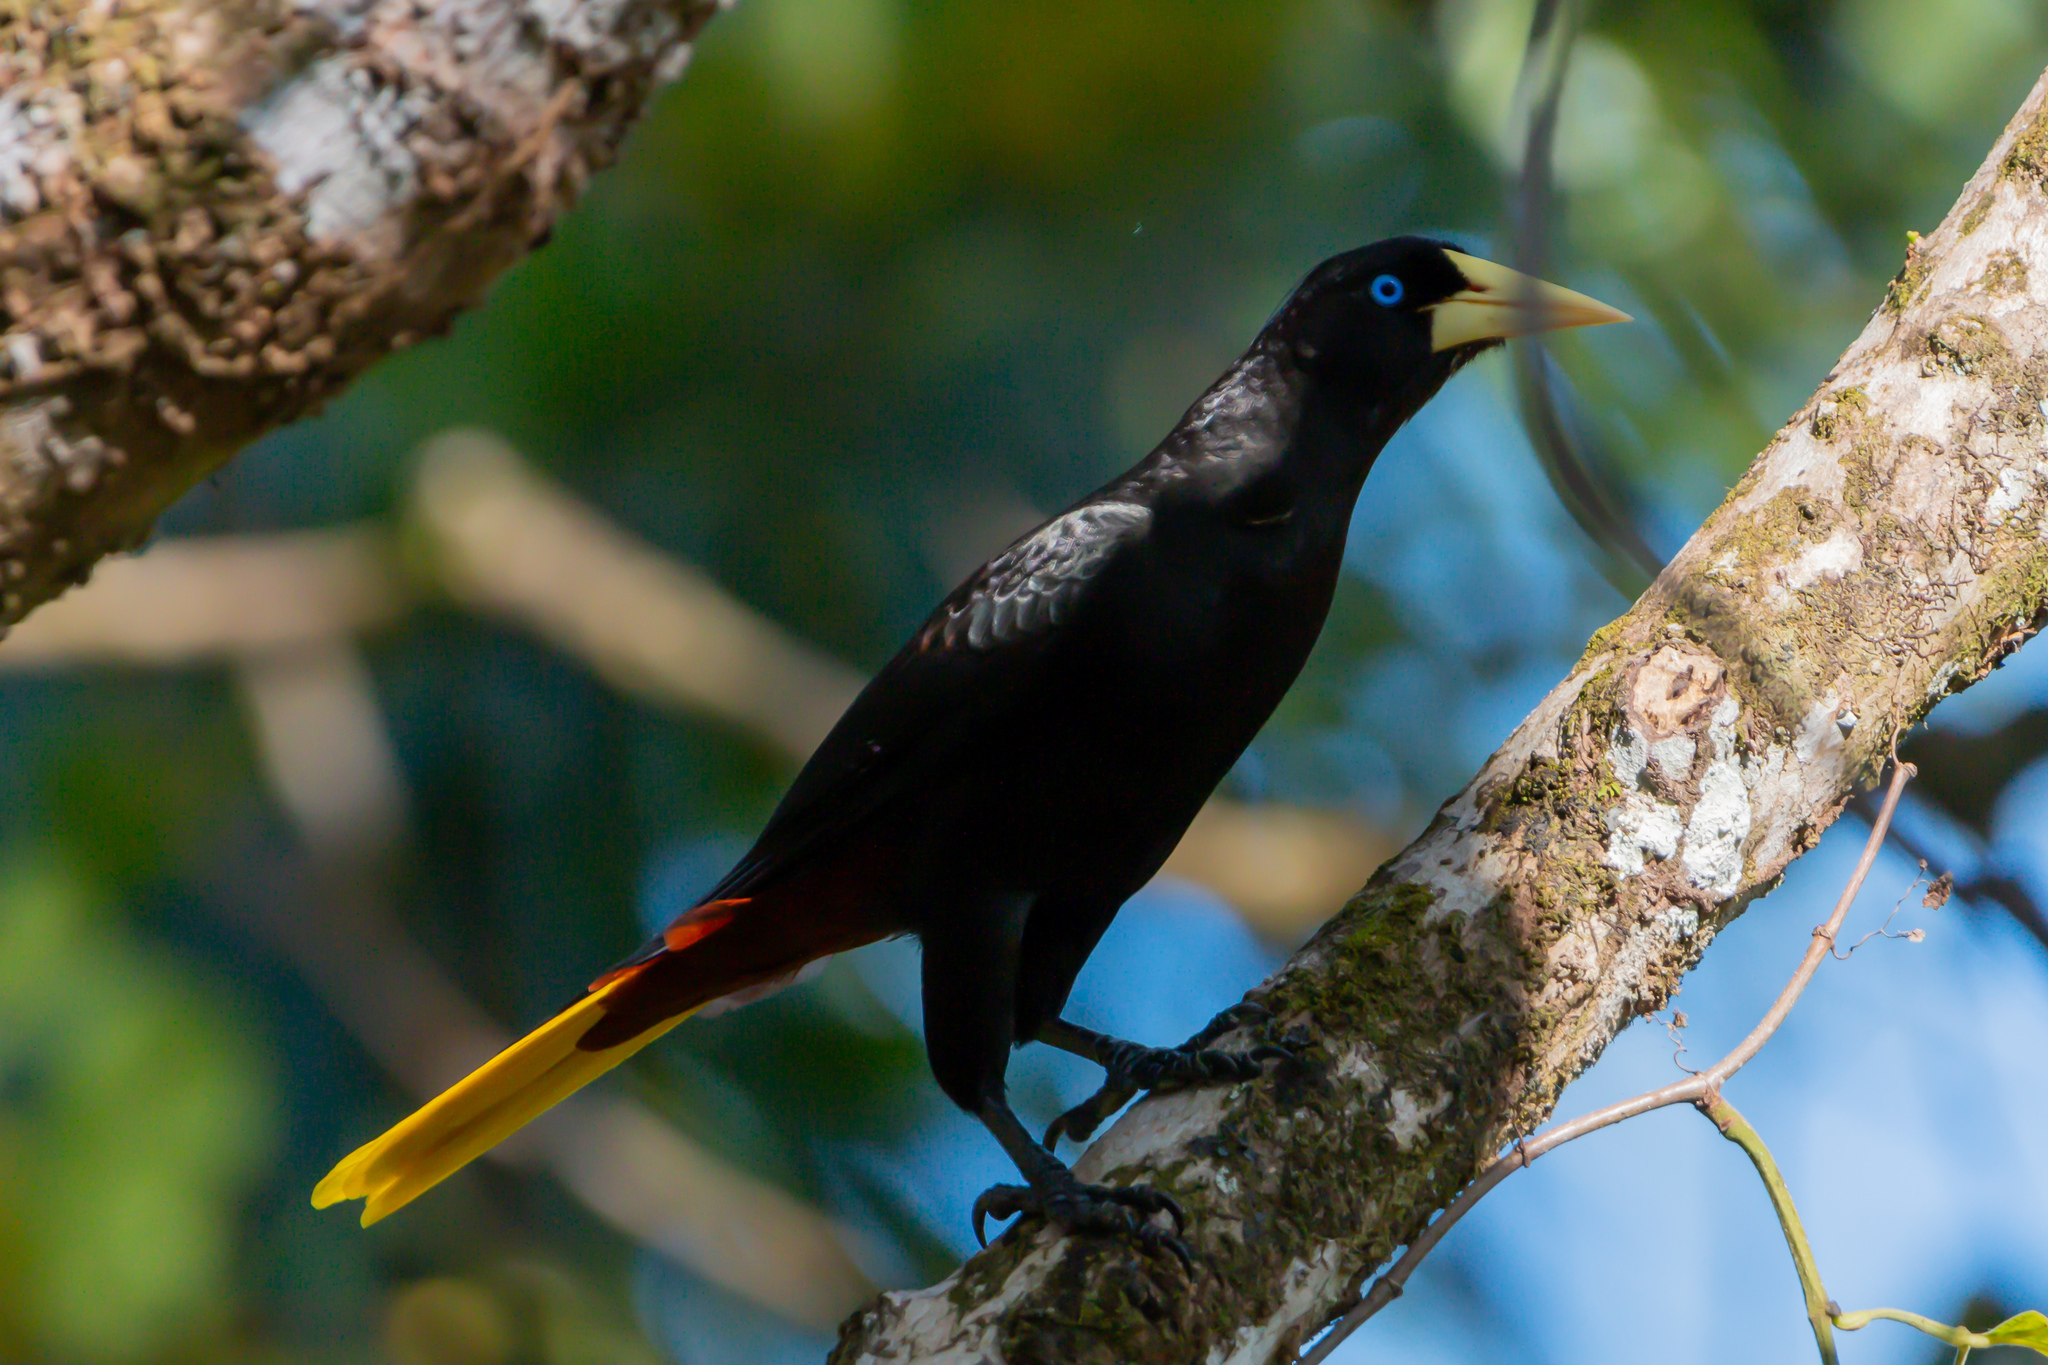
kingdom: Animalia
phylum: Chordata
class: Aves
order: Passeriformes
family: Icteridae
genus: Psarocolius
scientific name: Psarocolius decumanus
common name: Crested oropendola
